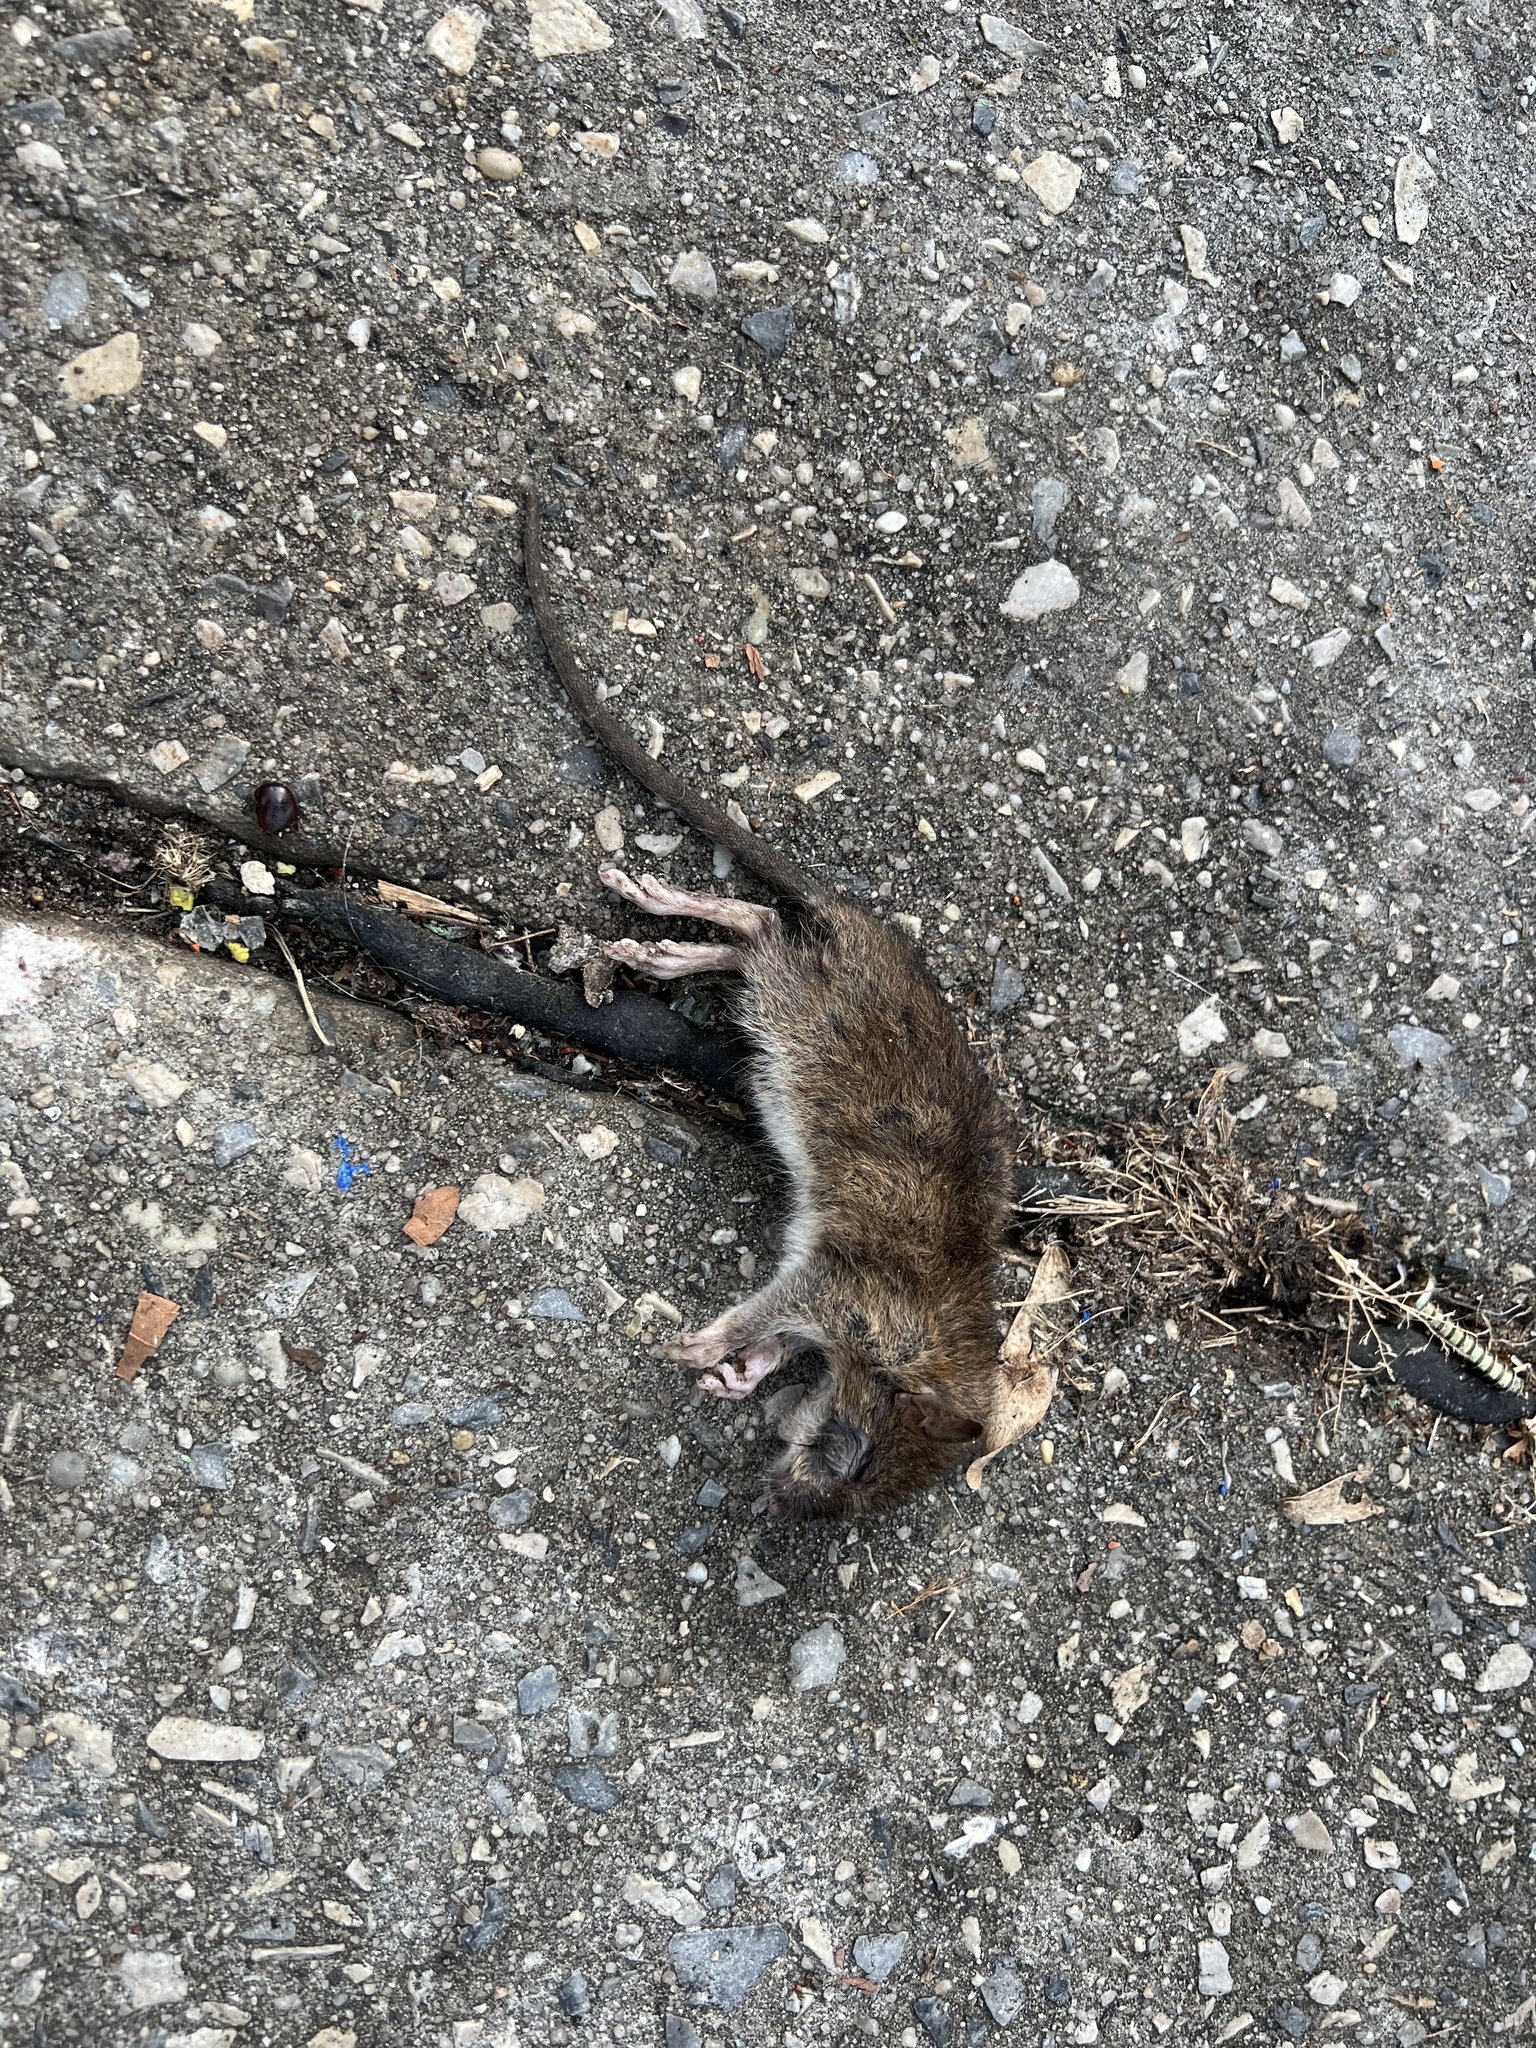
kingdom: Animalia
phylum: Chordata
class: Mammalia
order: Rodentia
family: Muridae
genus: Rattus
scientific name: Rattus norvegicus
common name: Brown rat
